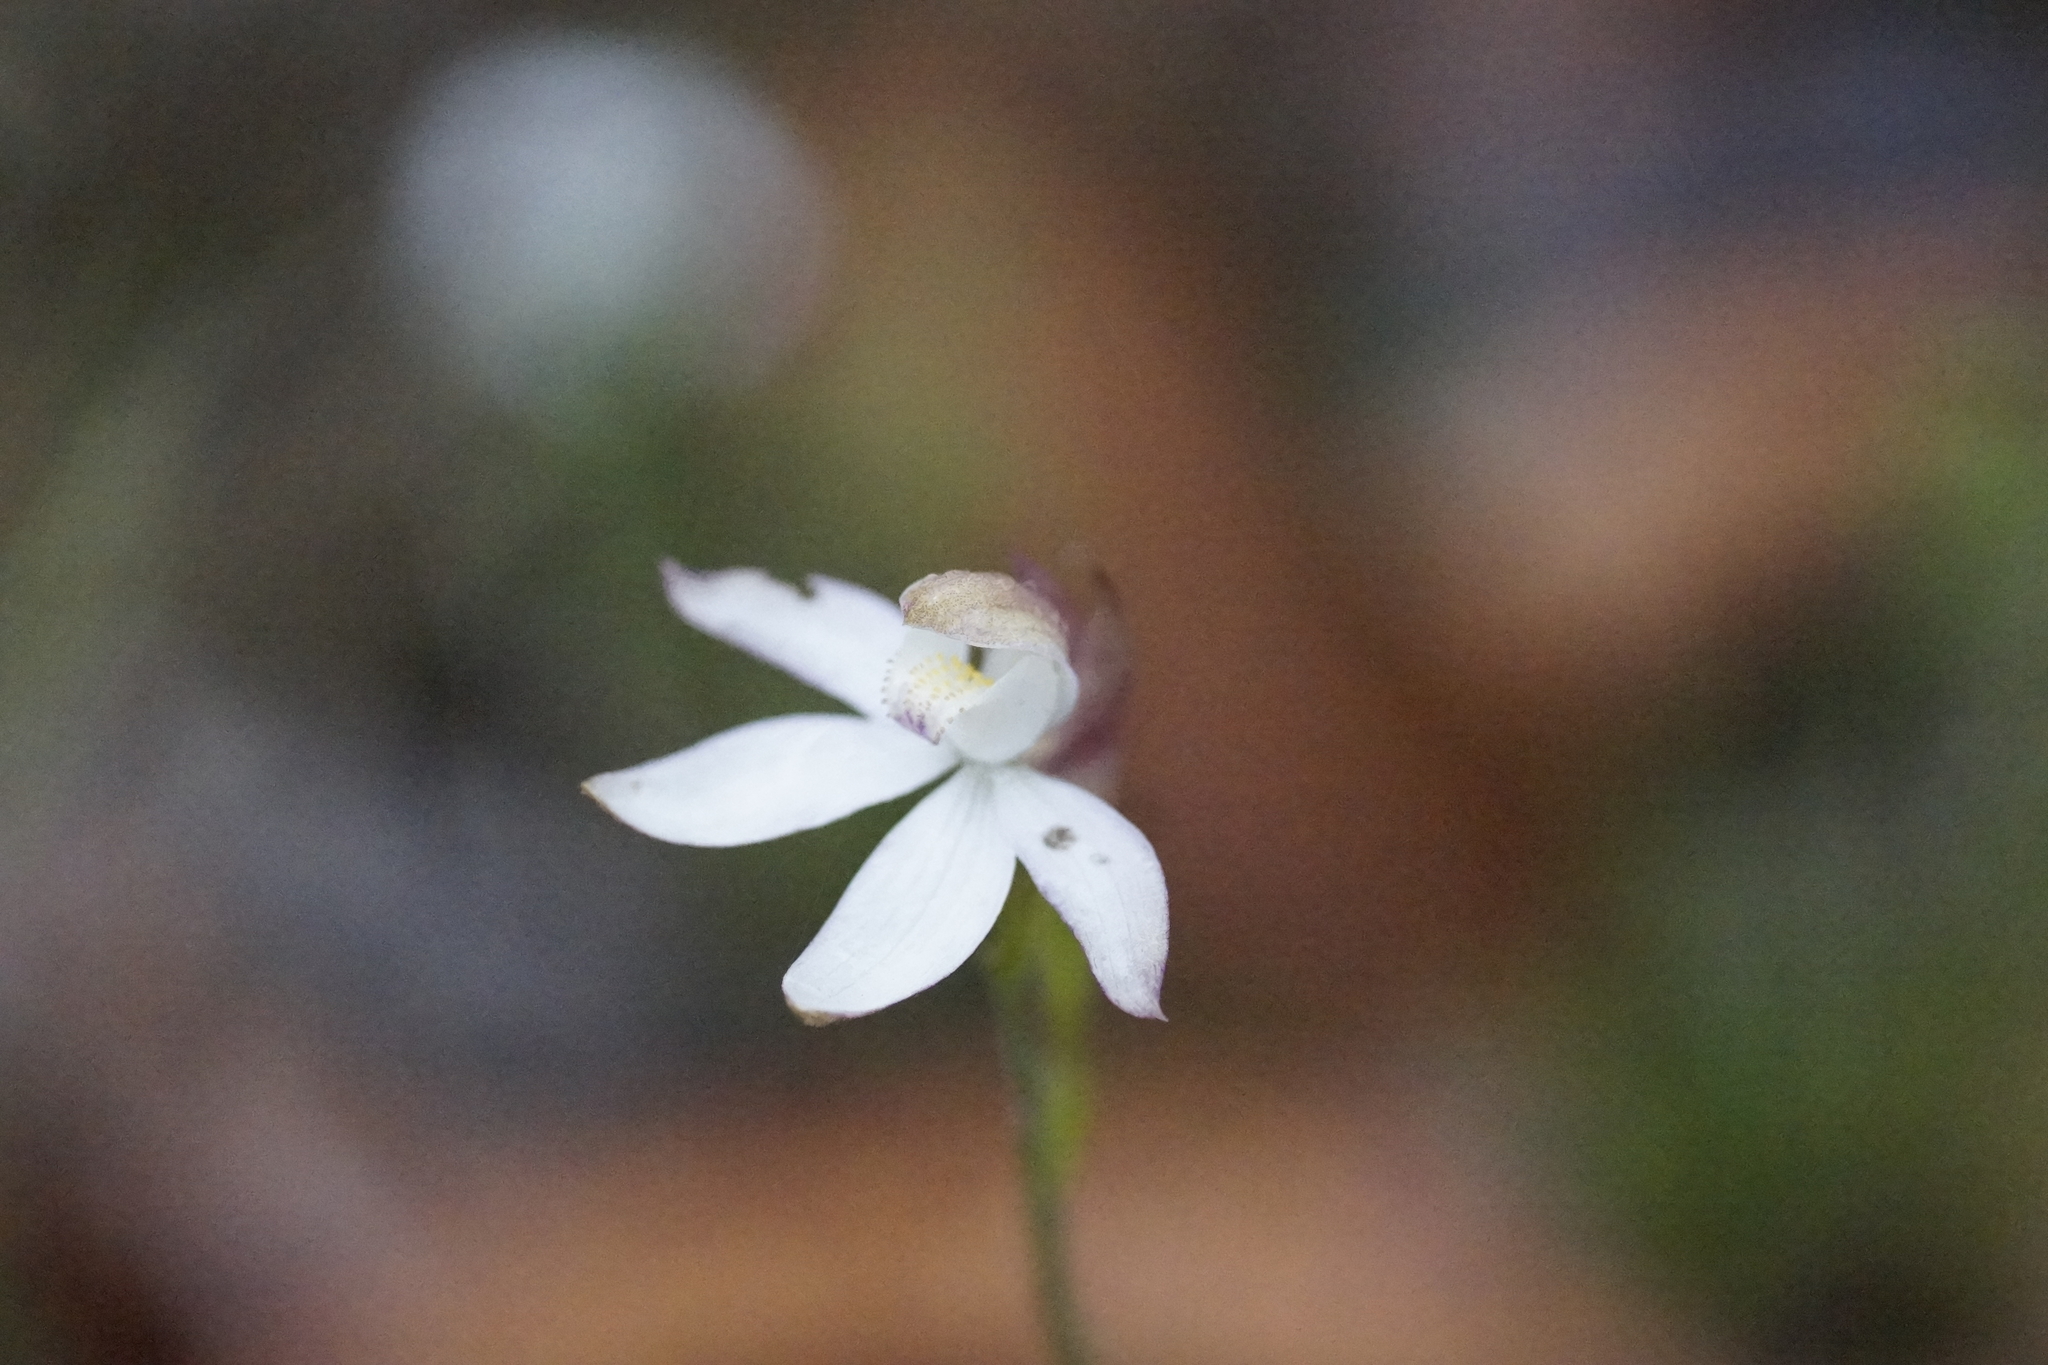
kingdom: Plantae
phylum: Tracheophyta
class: Liliopsida
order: Asparagales
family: Orchidaceae
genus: Caladenia
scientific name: Caladenia moschata
